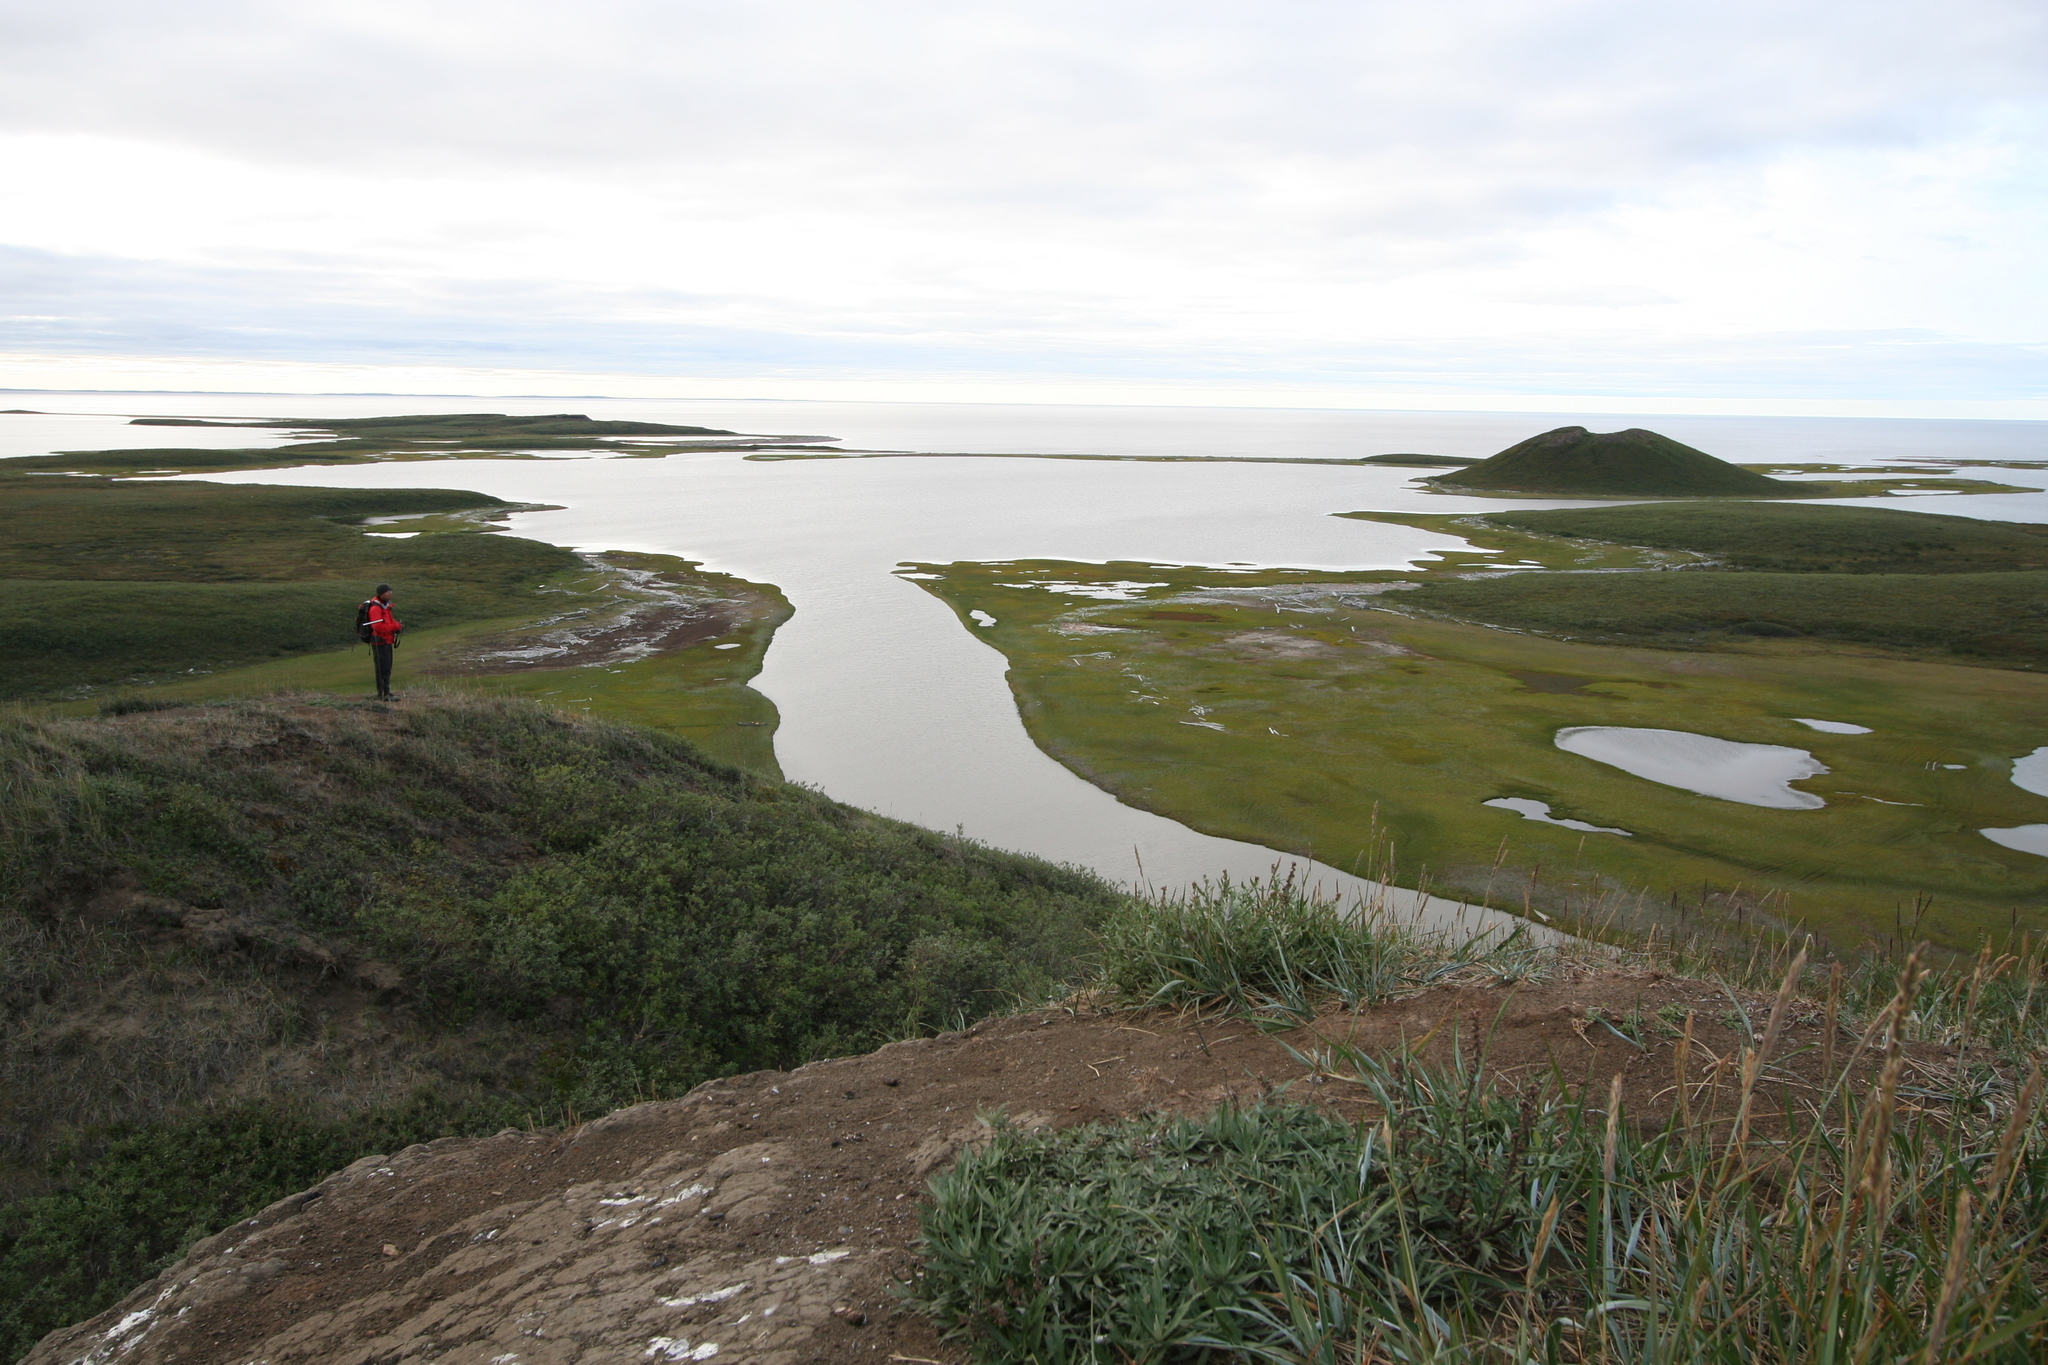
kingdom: Plantae
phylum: Tracheophyta
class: Liliopsida
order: Poales
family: Poaceae
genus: Leymus
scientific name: Leymus villosissimus
